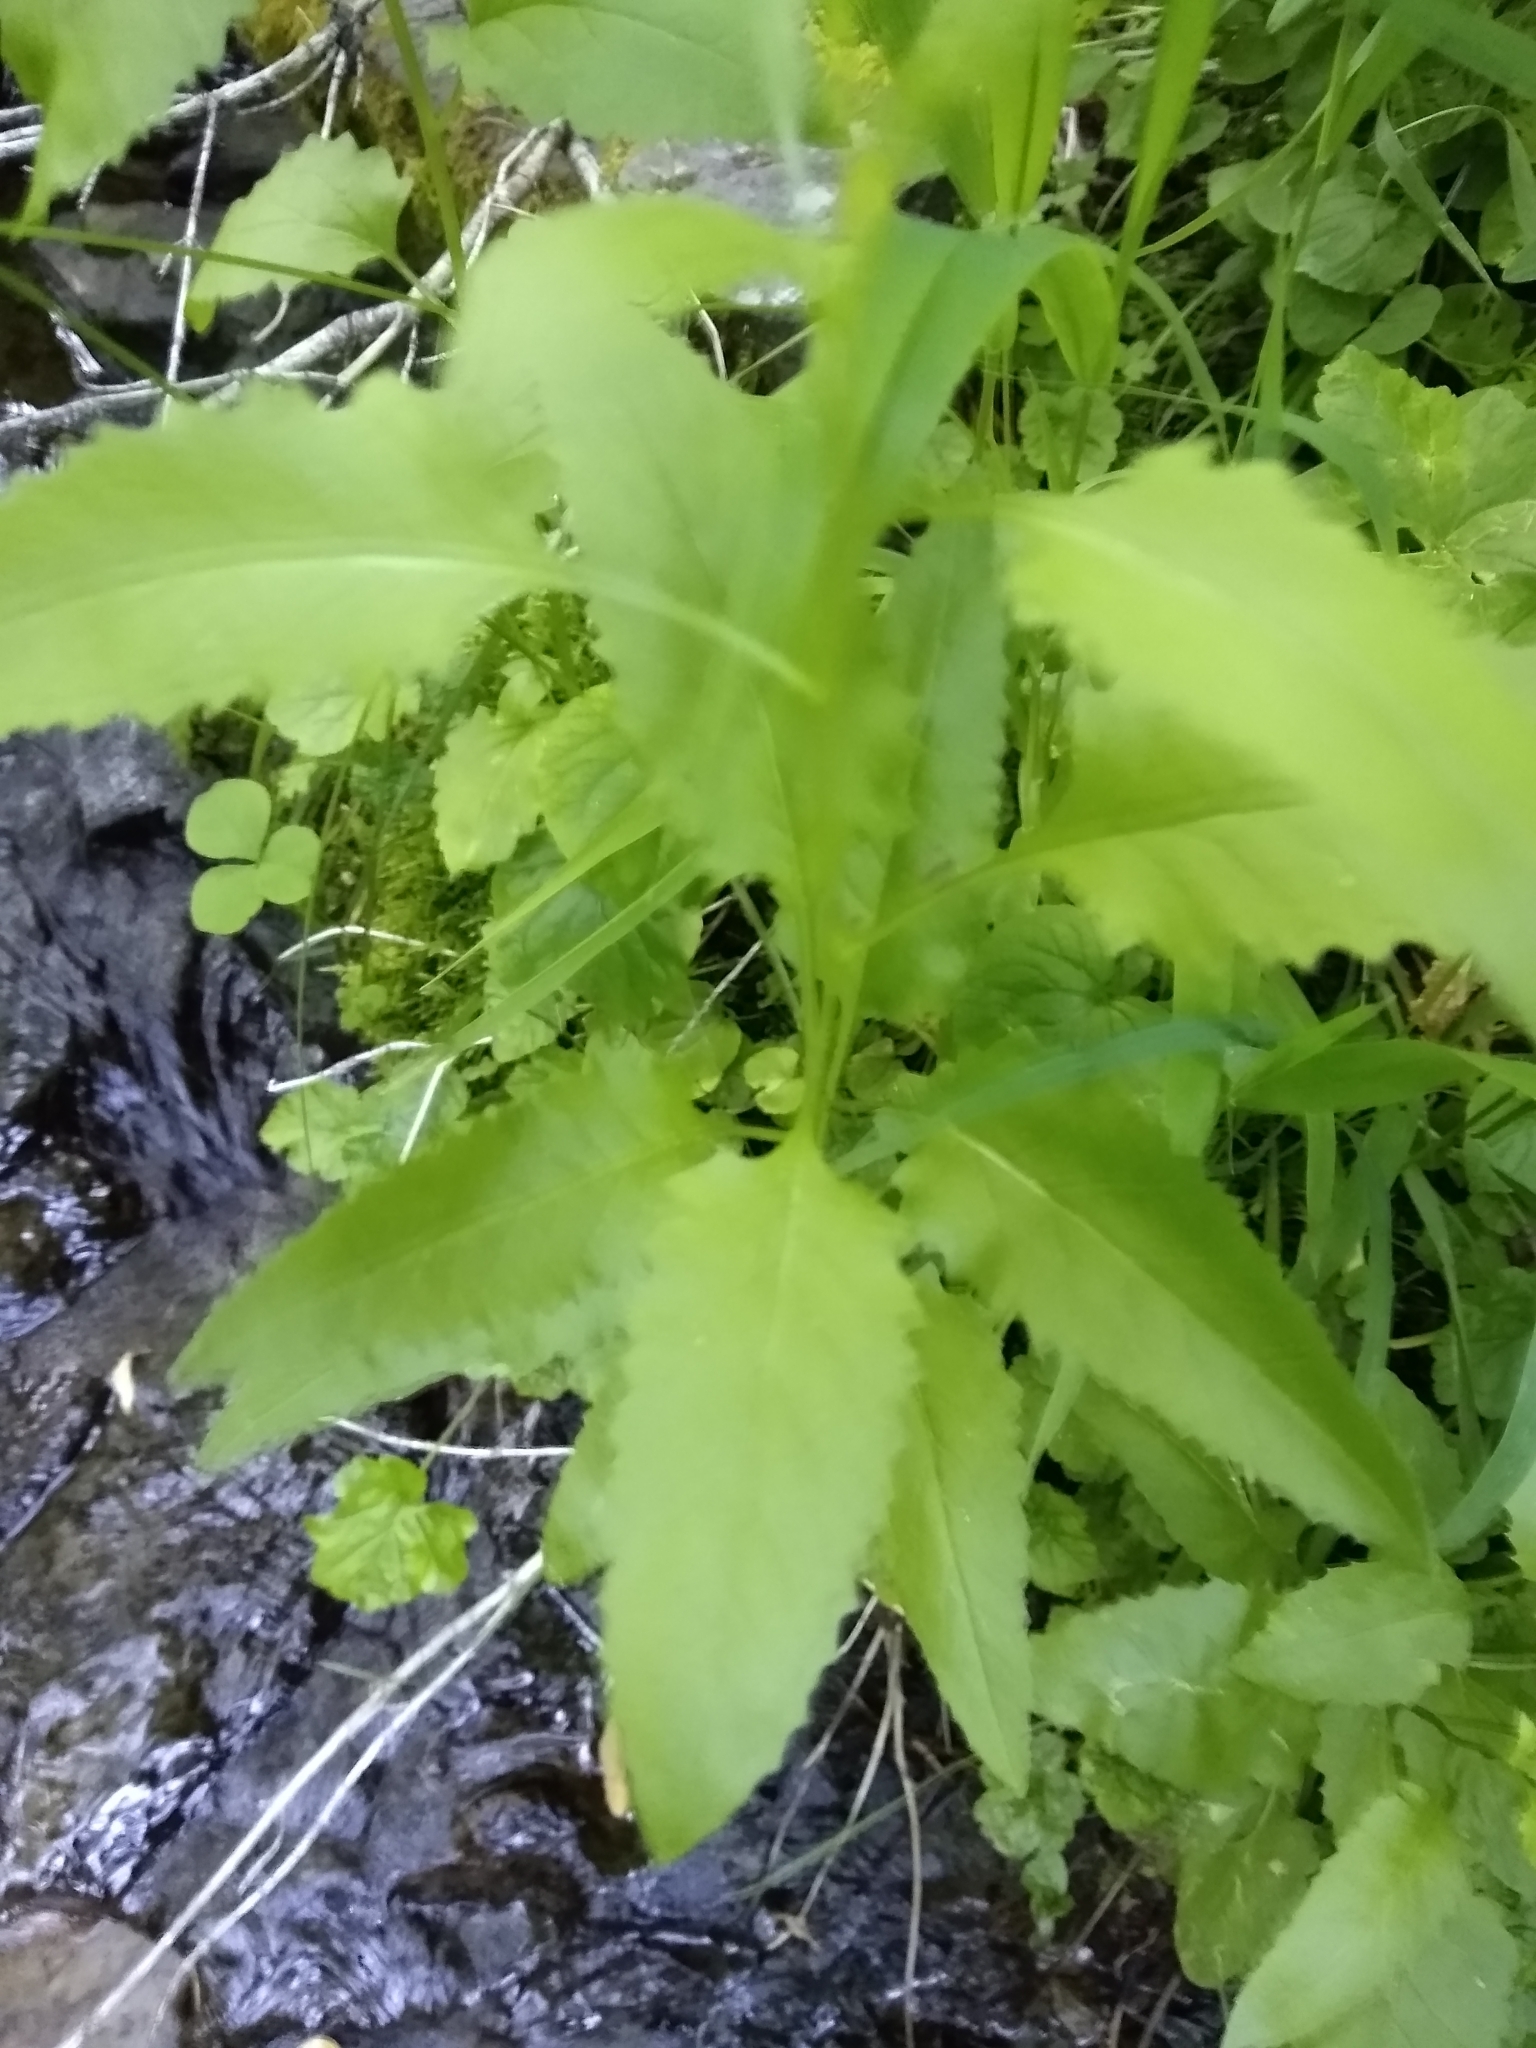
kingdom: Plantae
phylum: Tracheophyta
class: Magnoliopsida
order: Asterales
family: Asteraceae
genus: Senecio
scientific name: Senecio triangularis
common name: Arrowleaf butterweed
